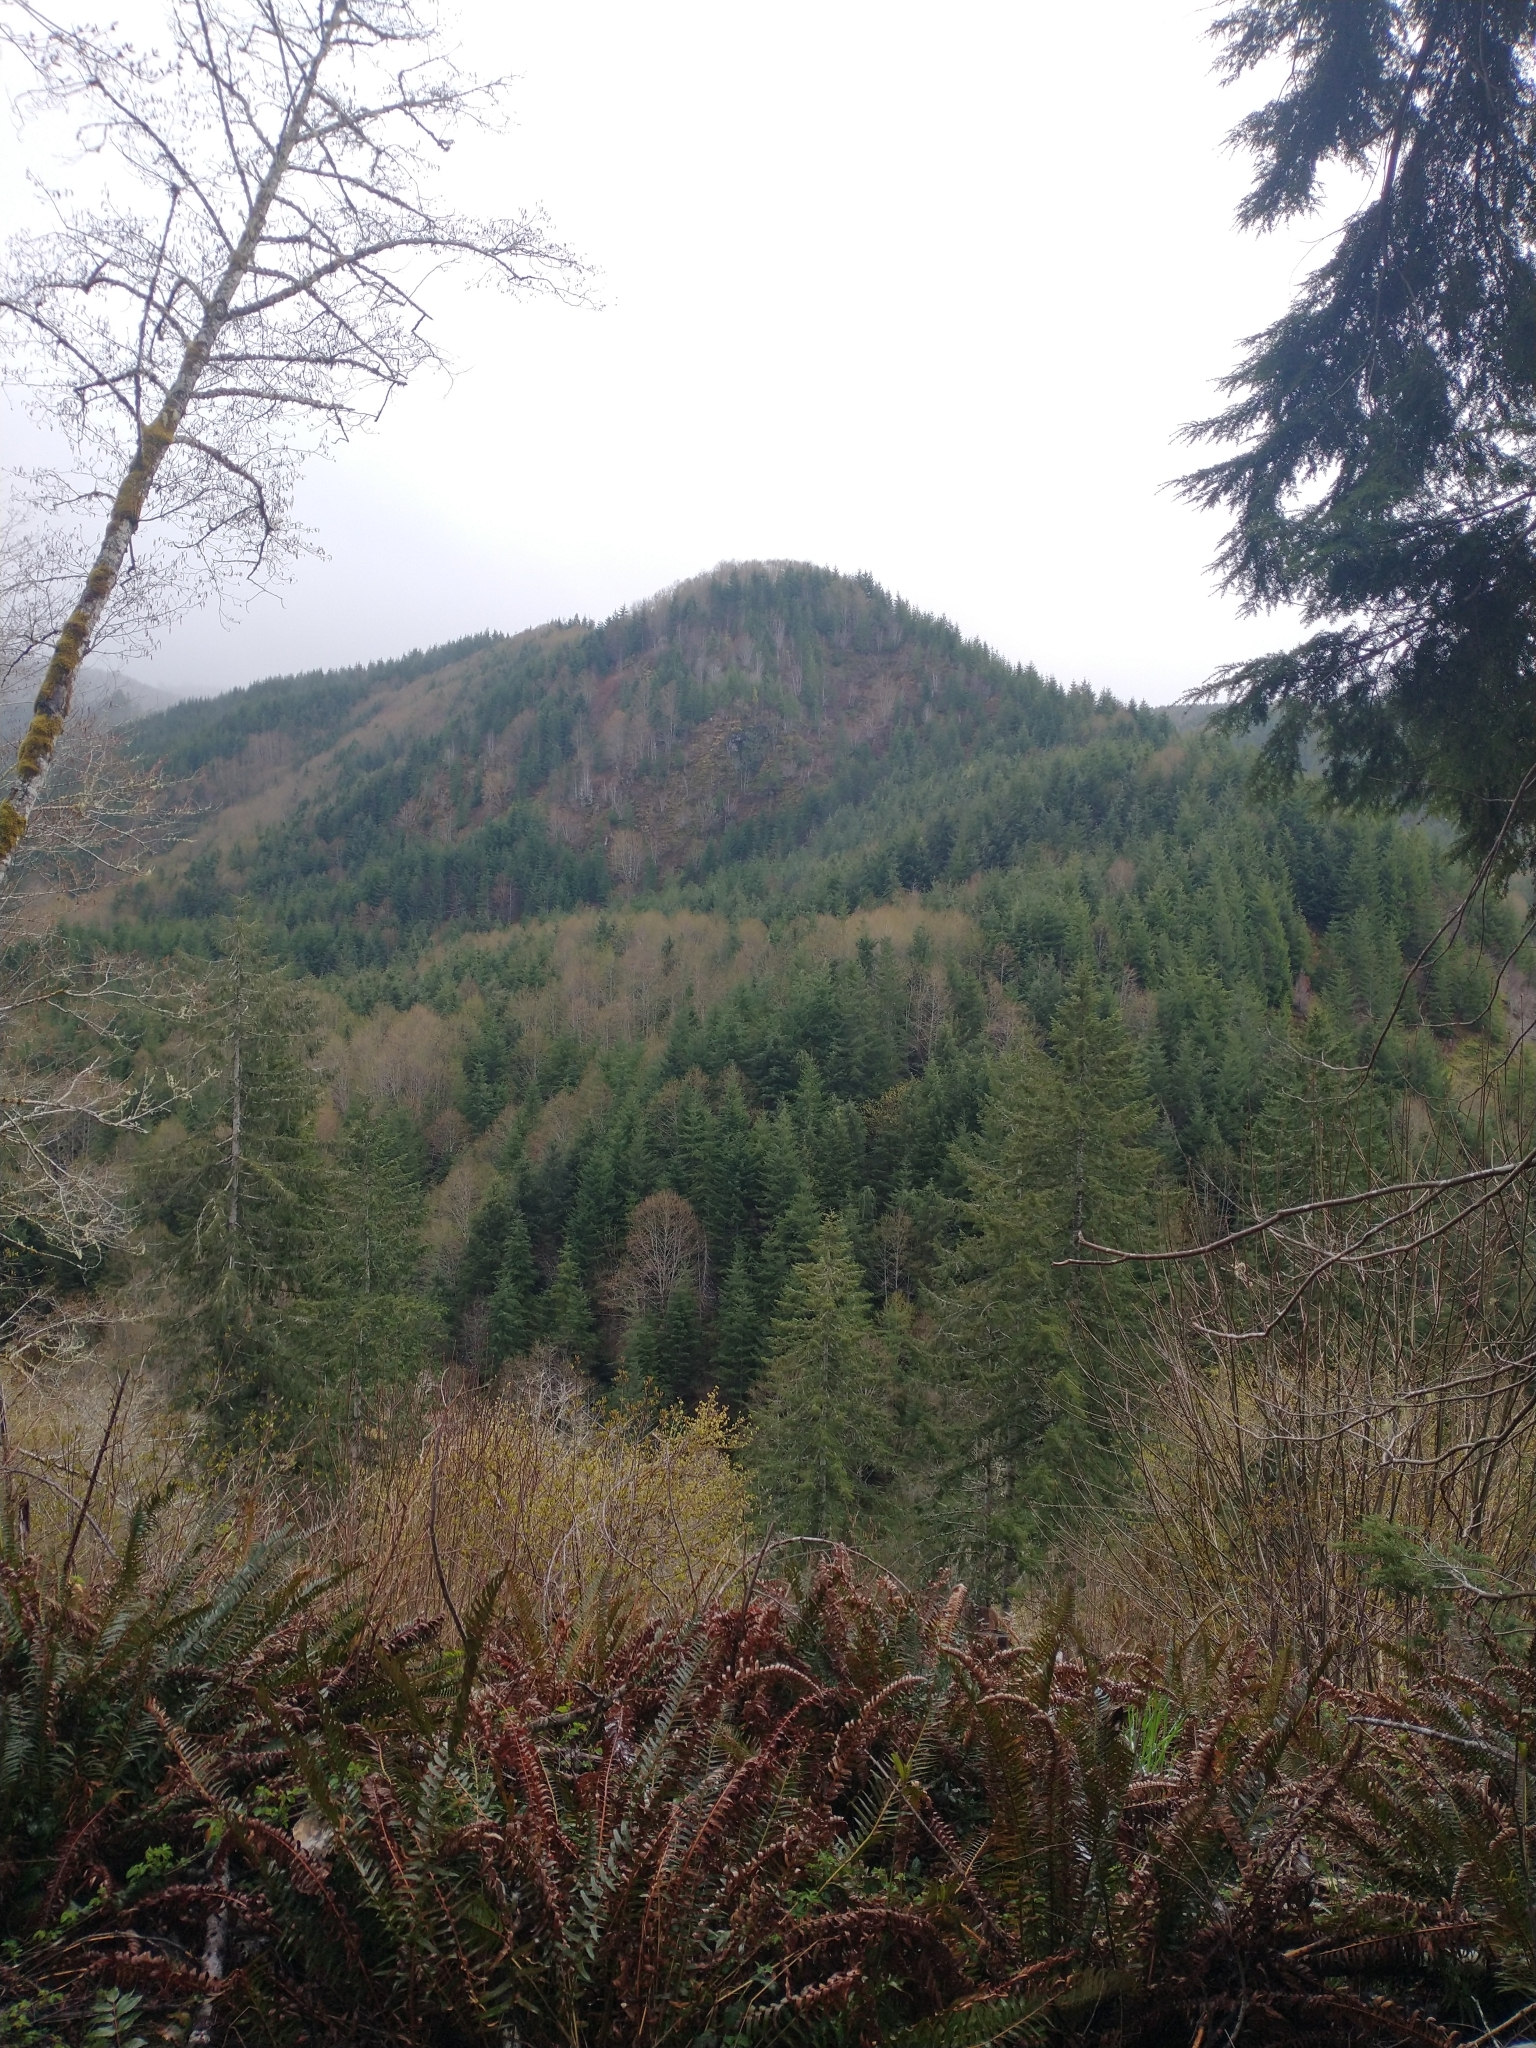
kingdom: Plantae
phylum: Tracheophyta
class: Pinopsida
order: Pinales
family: Pinaceae
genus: Pseudotsuga
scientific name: Pseudotsuga menziesii
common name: Douglas fir
